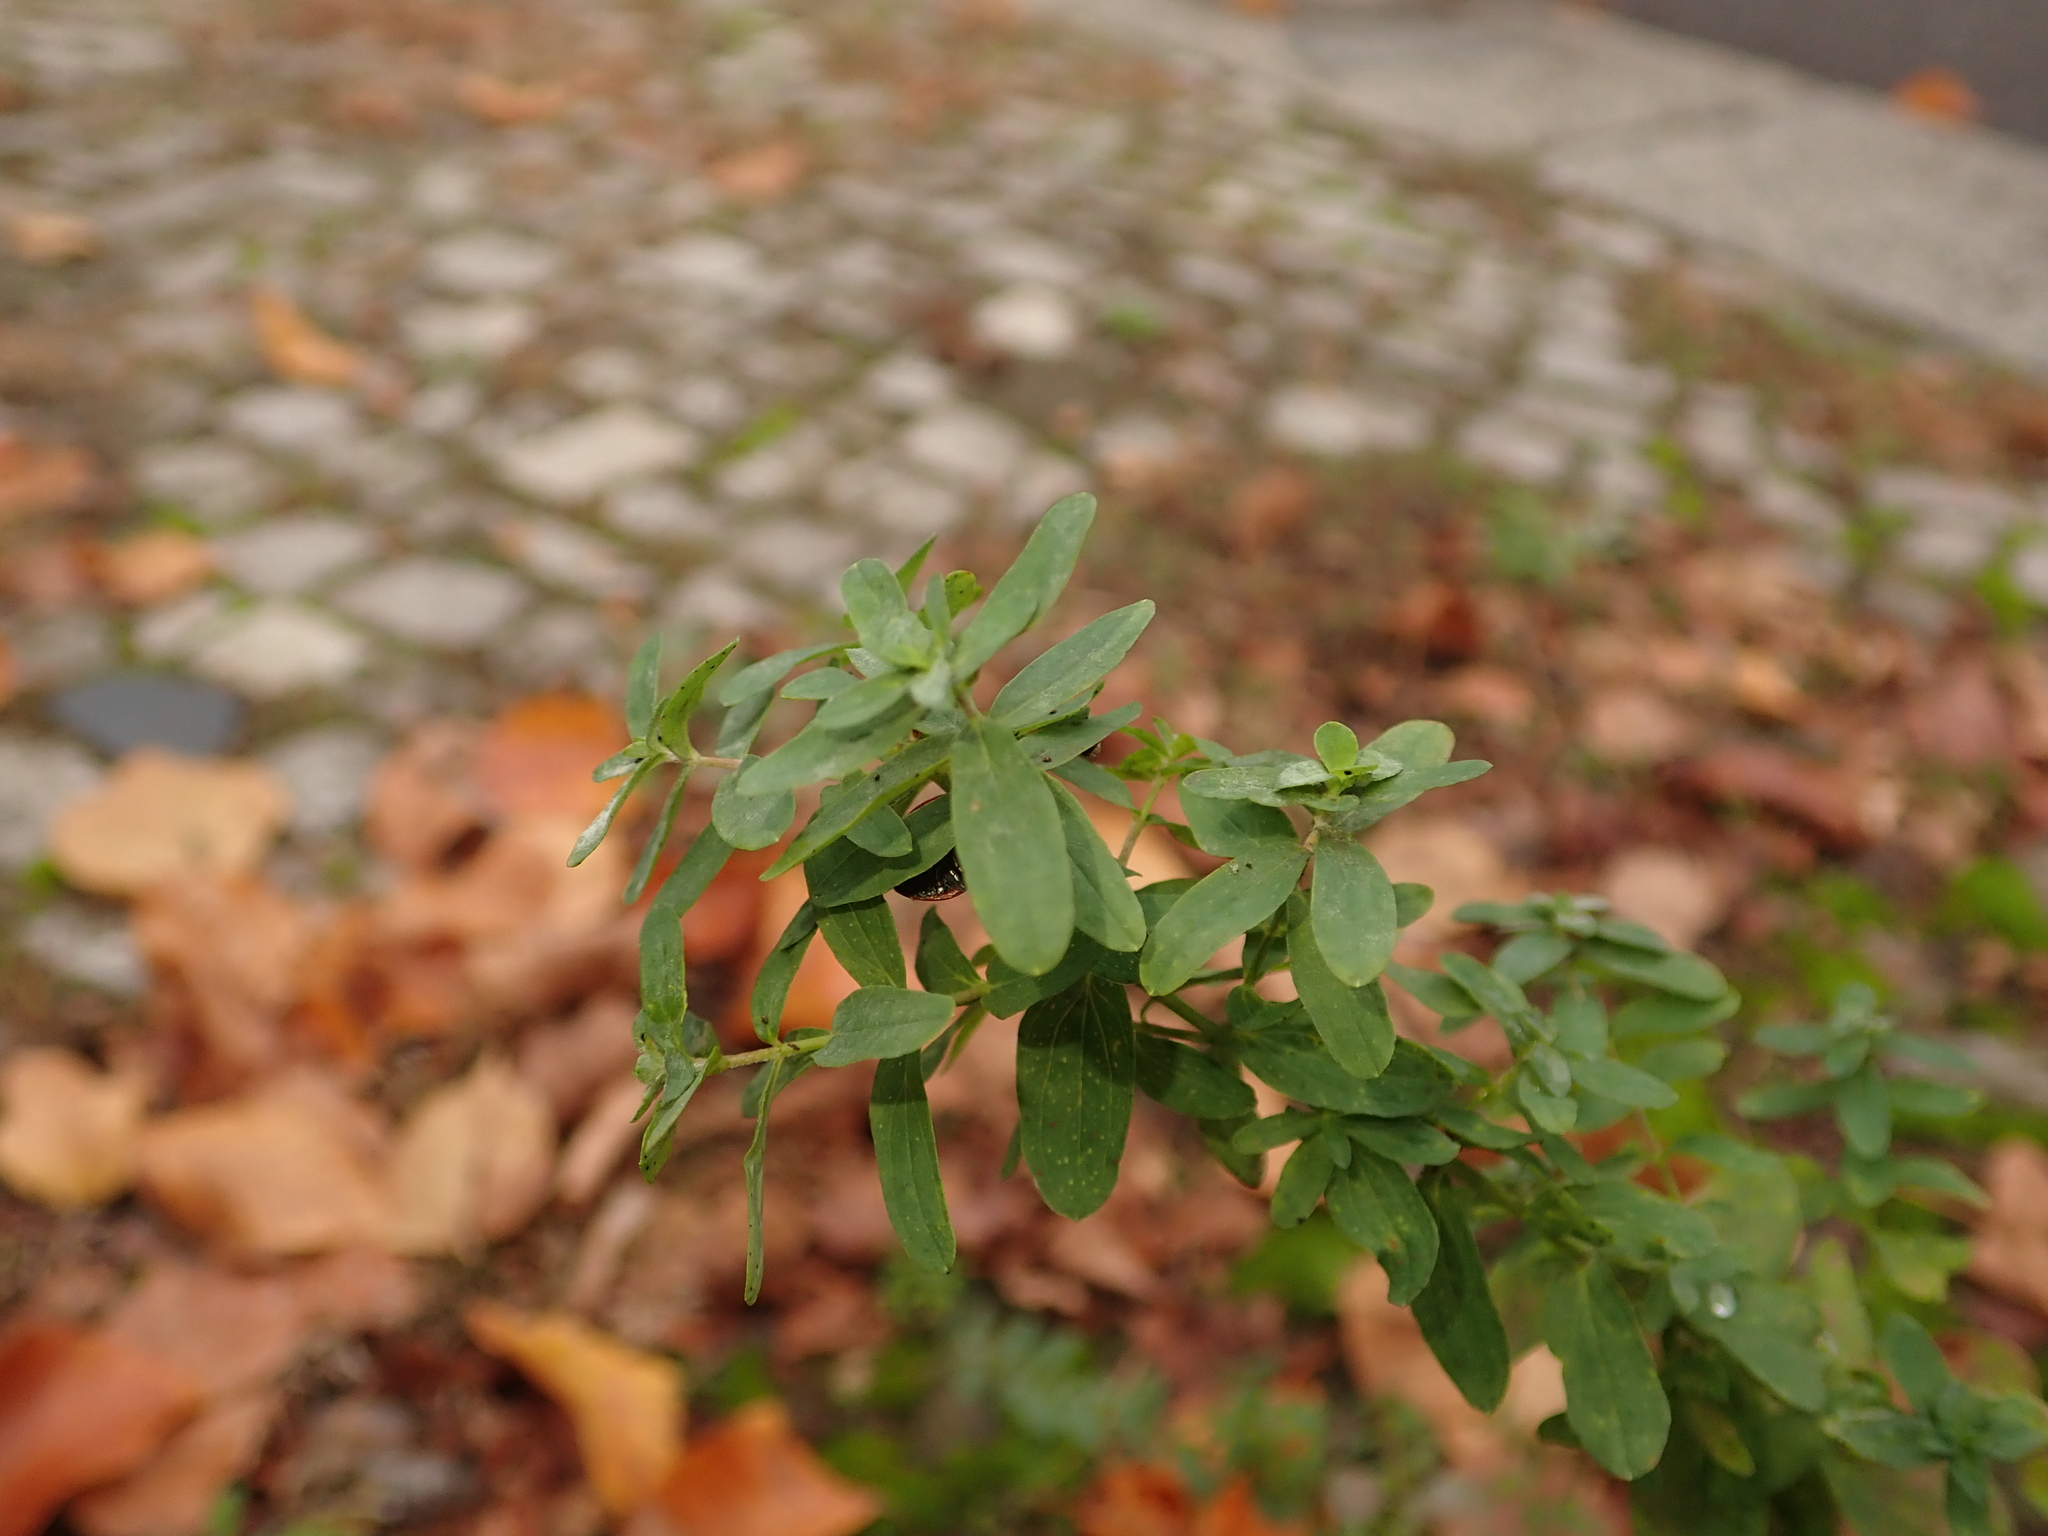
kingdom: Plantae
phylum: Tracheophyta
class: Magnoliopsida
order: Malpighiales
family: Hypericaceae
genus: Hypericum
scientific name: Hypericum perforatum
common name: Common st. johnswort
